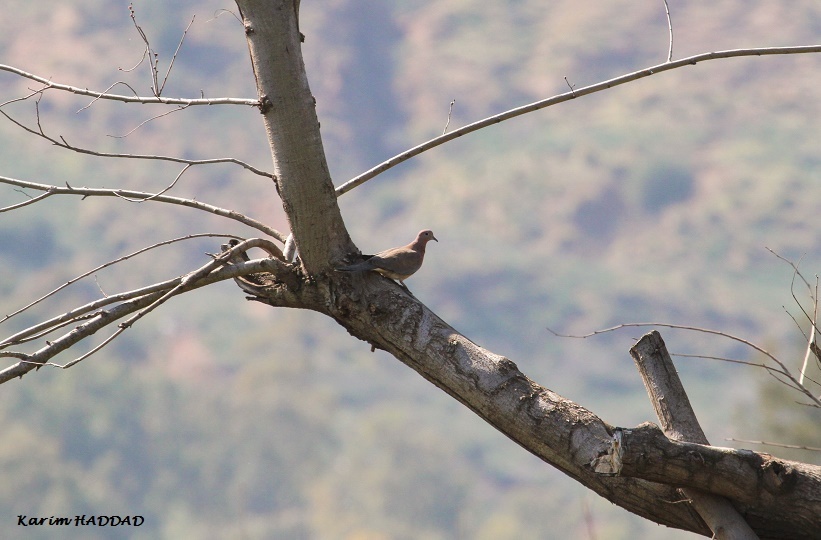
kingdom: Animalia
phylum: Chordata
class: Aves
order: Columbiformes
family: Columbidae
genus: Spilopelia
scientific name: Spilopelia senegalensis
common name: Laughing dove
